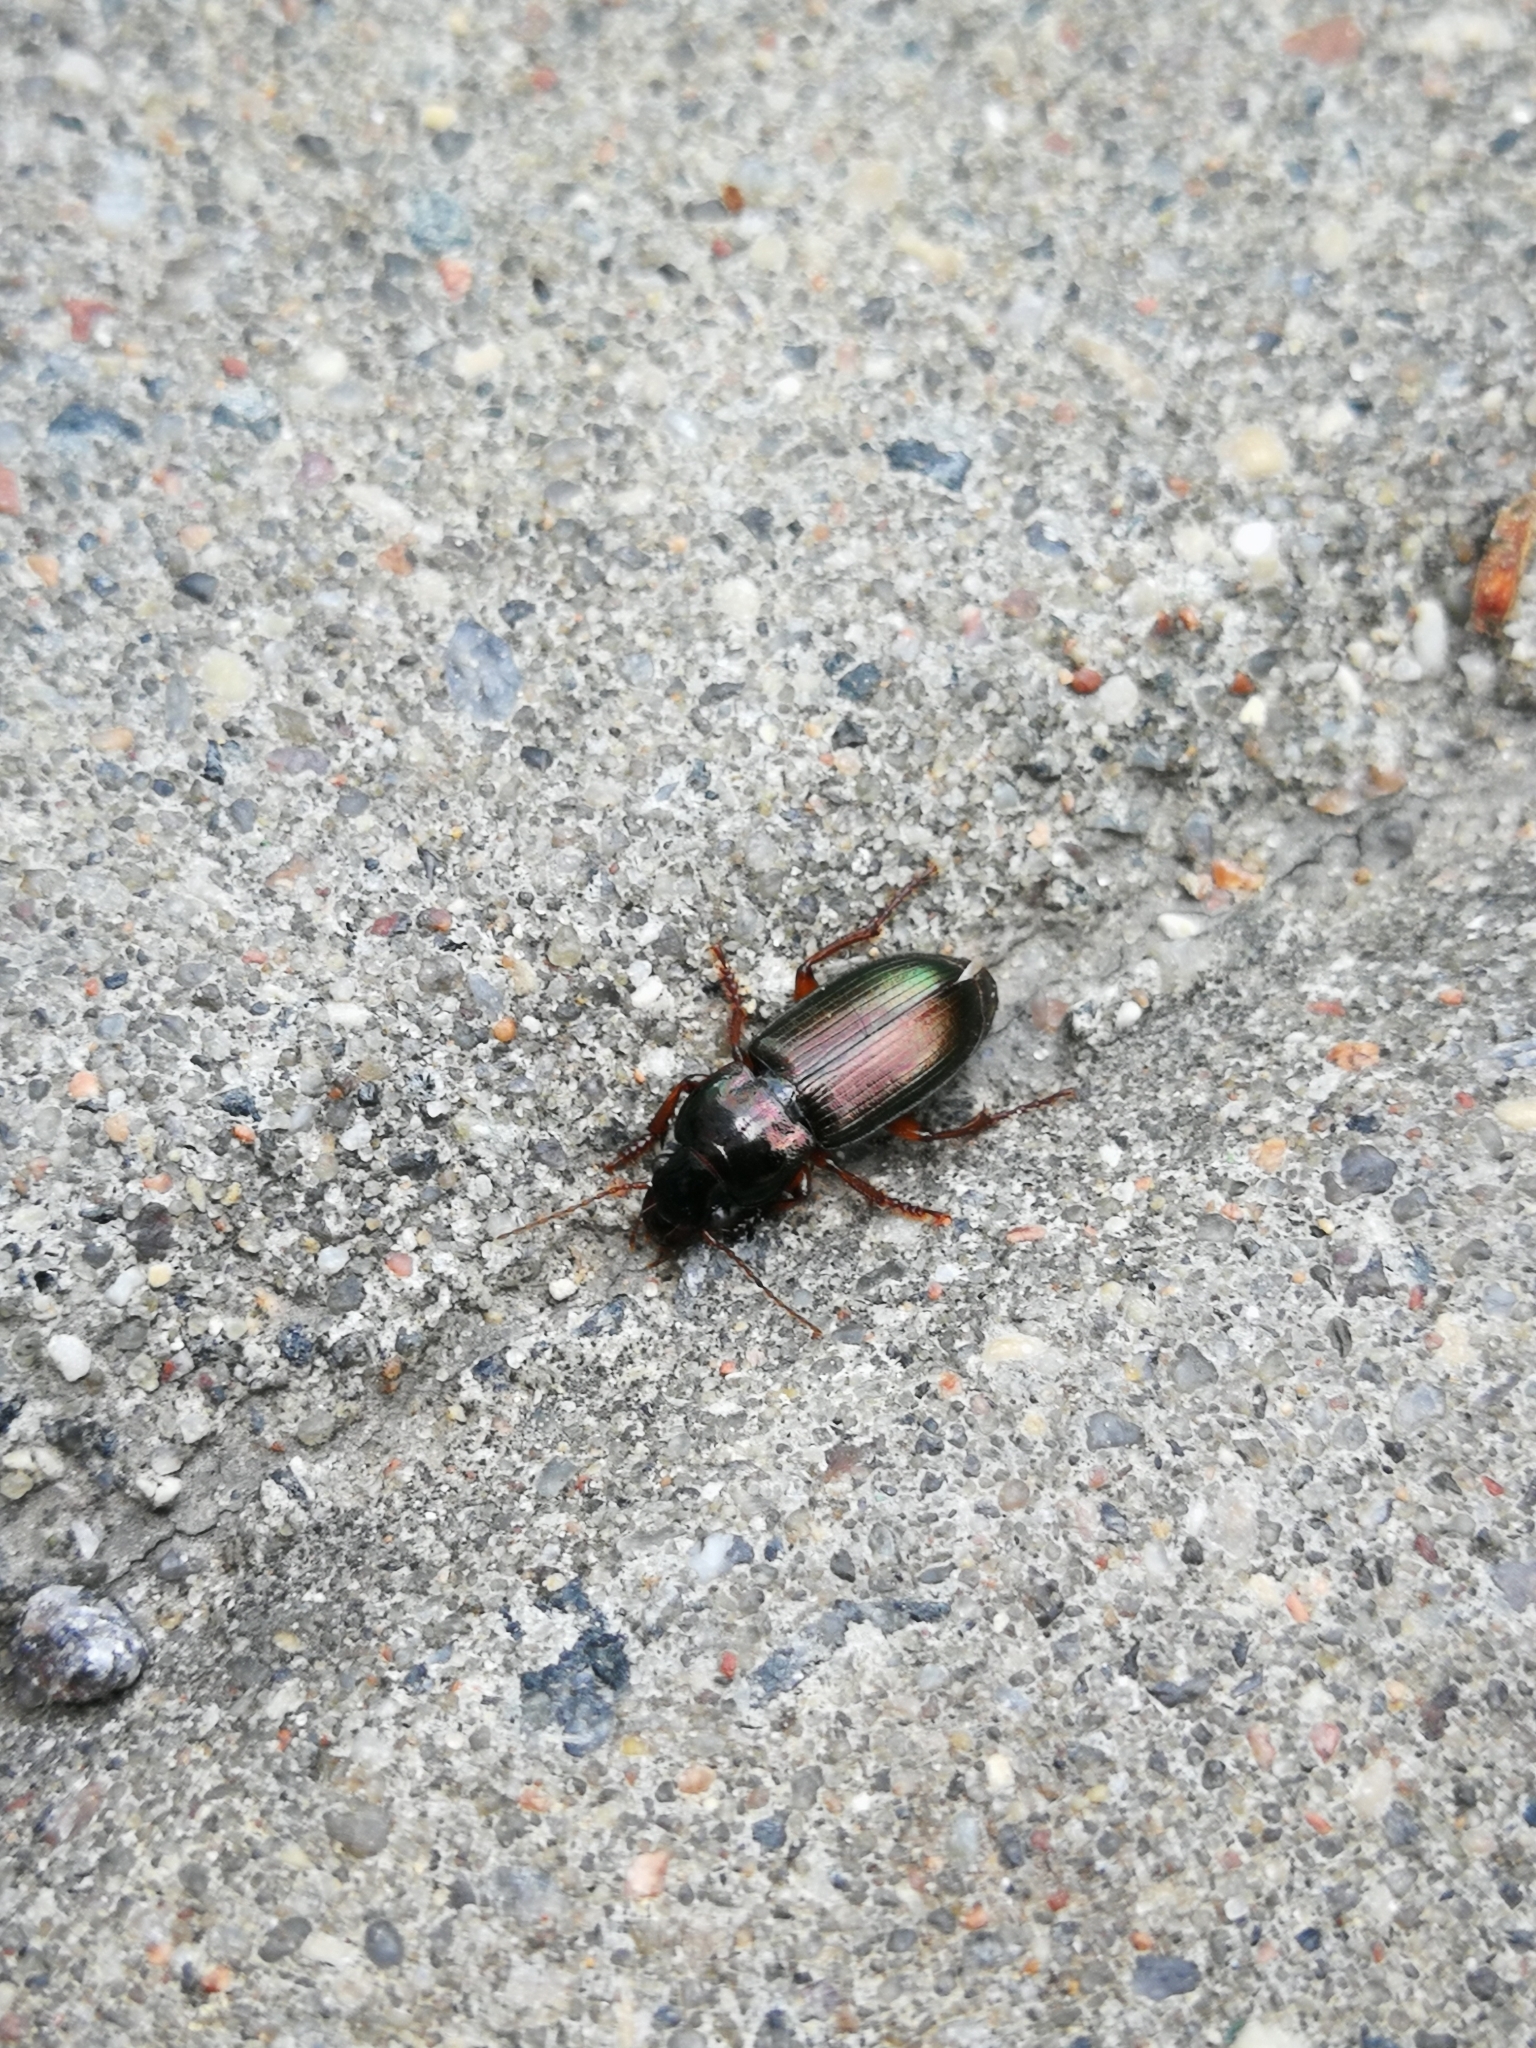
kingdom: Animalia
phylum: Arthropoda
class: Insecta
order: Coleoptera
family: Carabidae
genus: Harpalus
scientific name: Harpalus affinis
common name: Polychrome harp ground beetle
